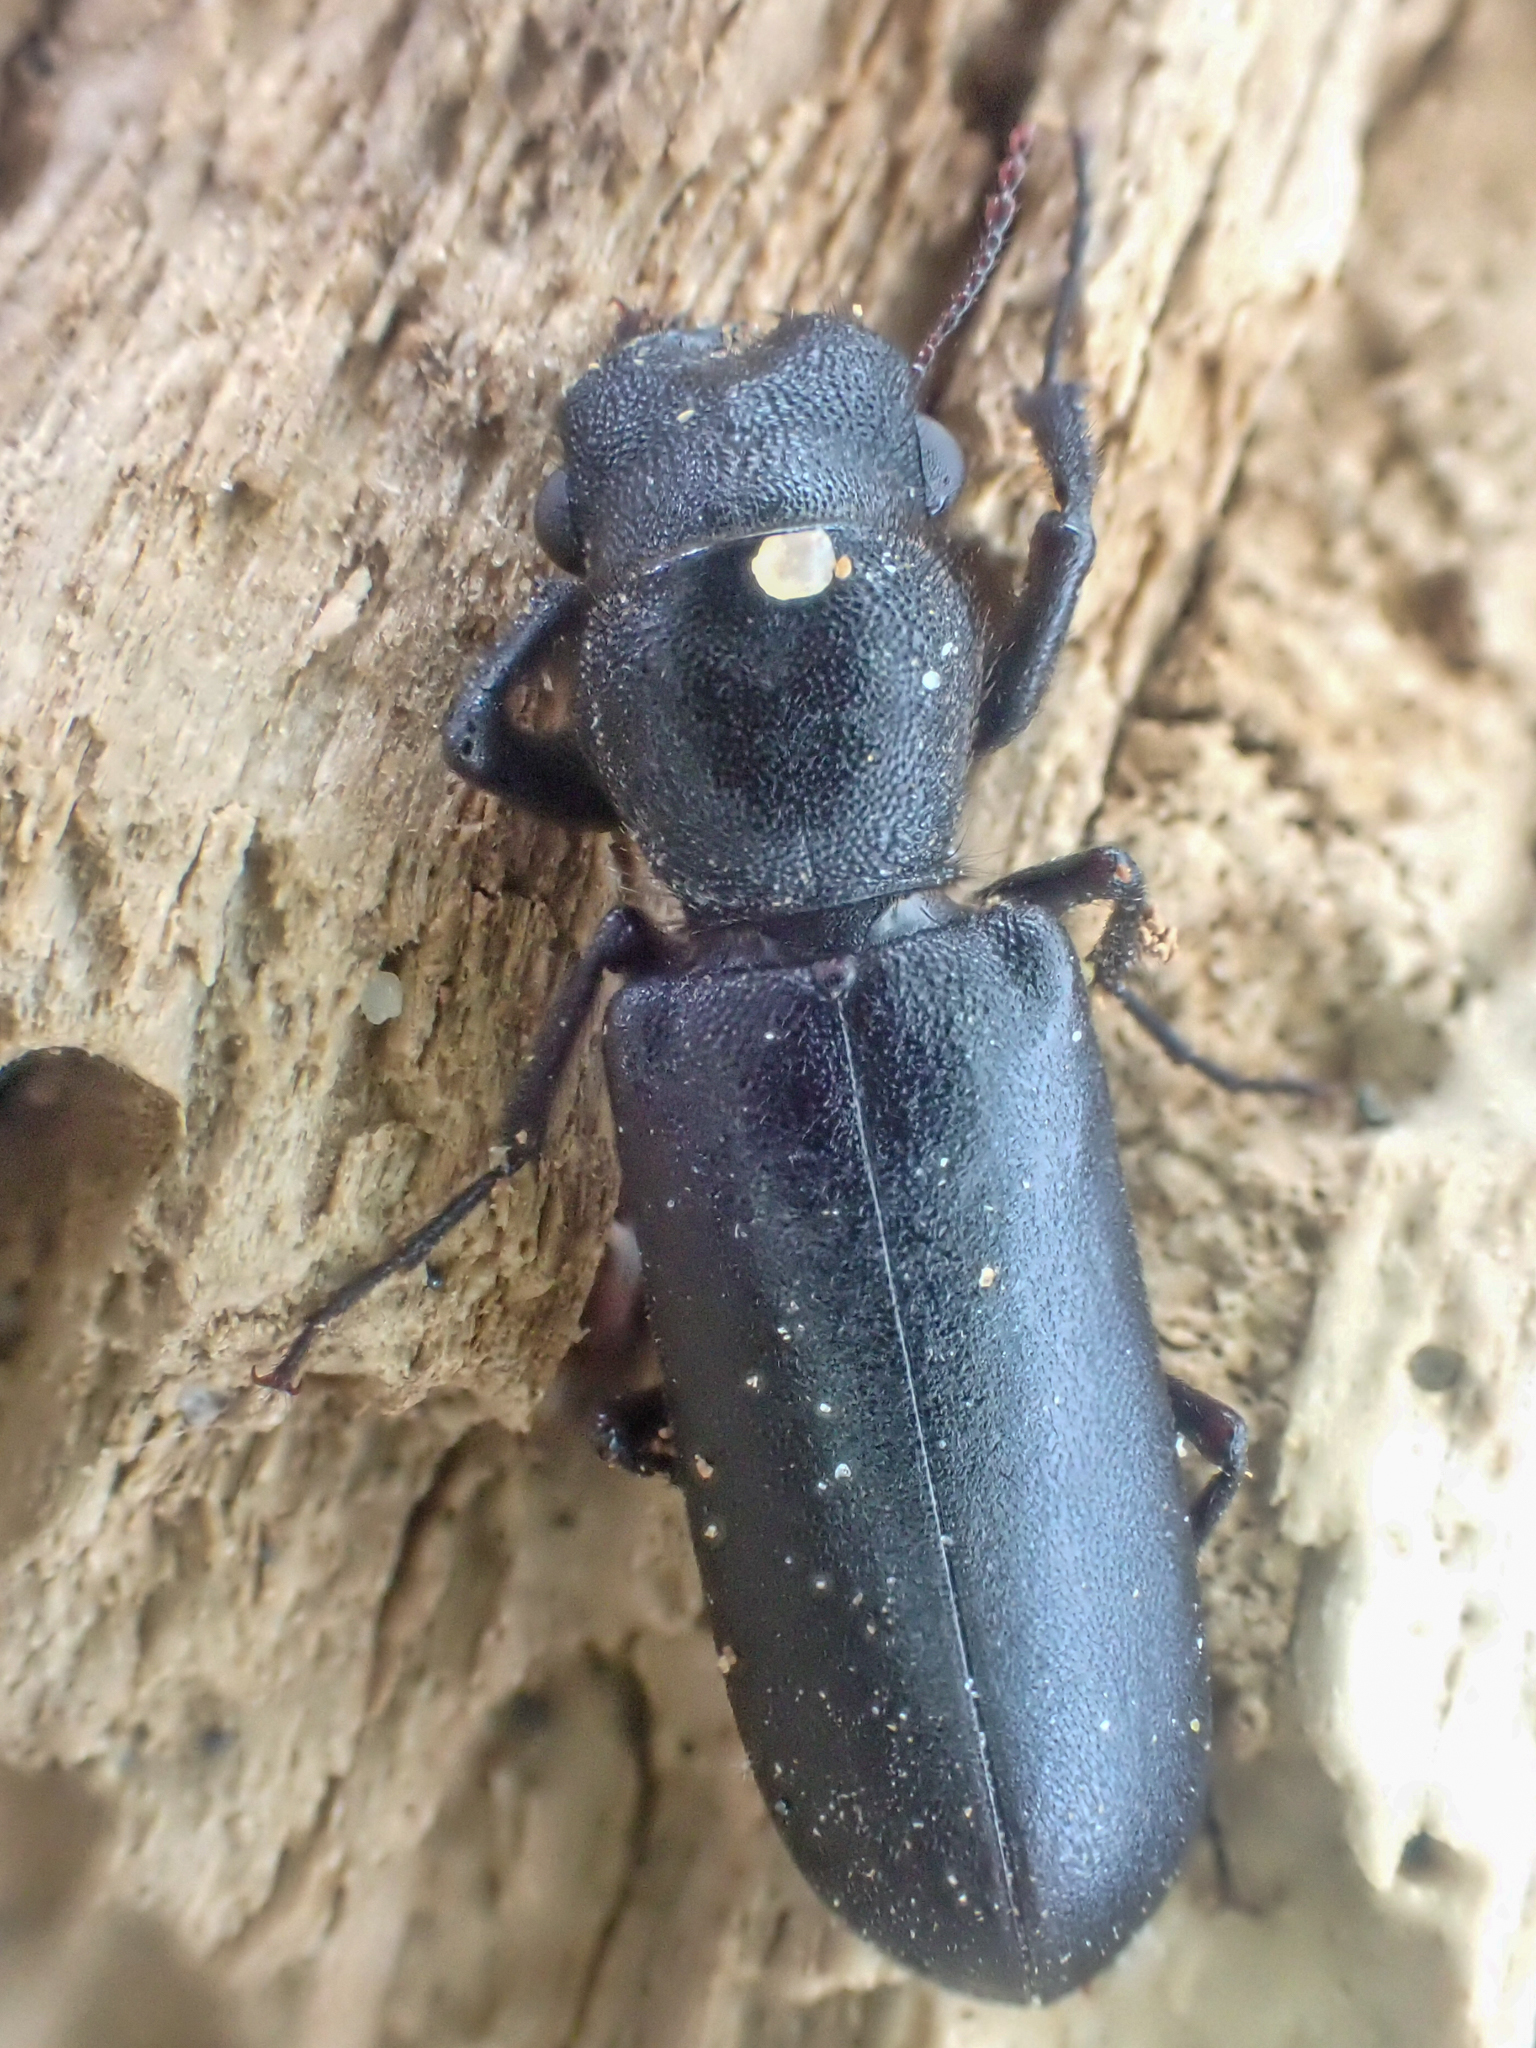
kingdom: Animalia
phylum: Arthropoda
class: Insecta
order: Coleoptera
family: Bostrichidae
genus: Polycaon
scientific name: Polycaon stoutii
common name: Powderpost beetle
